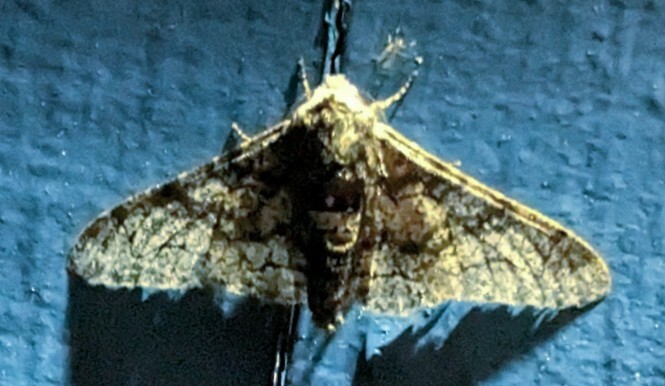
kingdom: Animalia
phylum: Arthropoda
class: Insecta
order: Lepidoptera
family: Geometridae
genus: Biston
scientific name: Biston betularia
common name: Peppered moth
